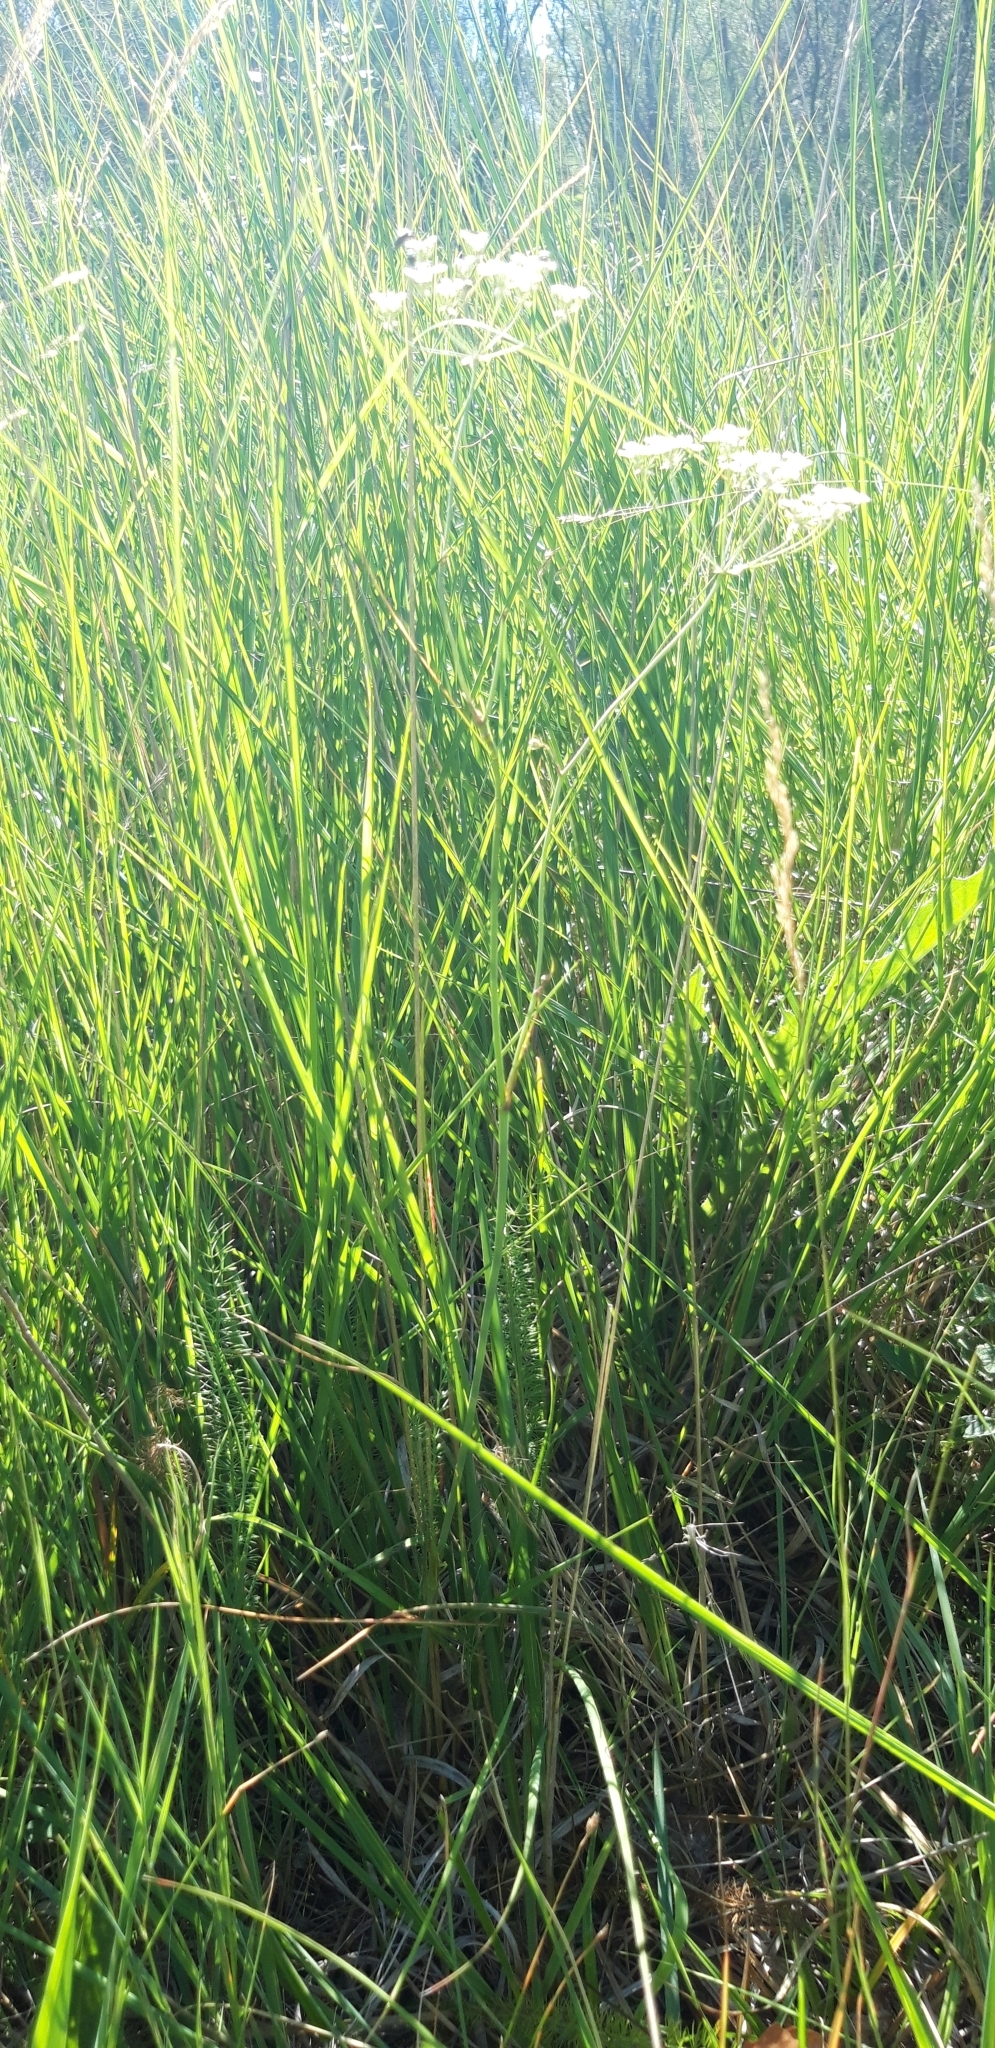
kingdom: Plantae
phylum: Tracheophyta
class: Magnoliopsida
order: Apiales
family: Apiaceae
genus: Trocdaris
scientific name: Trocdaris verticillatum
